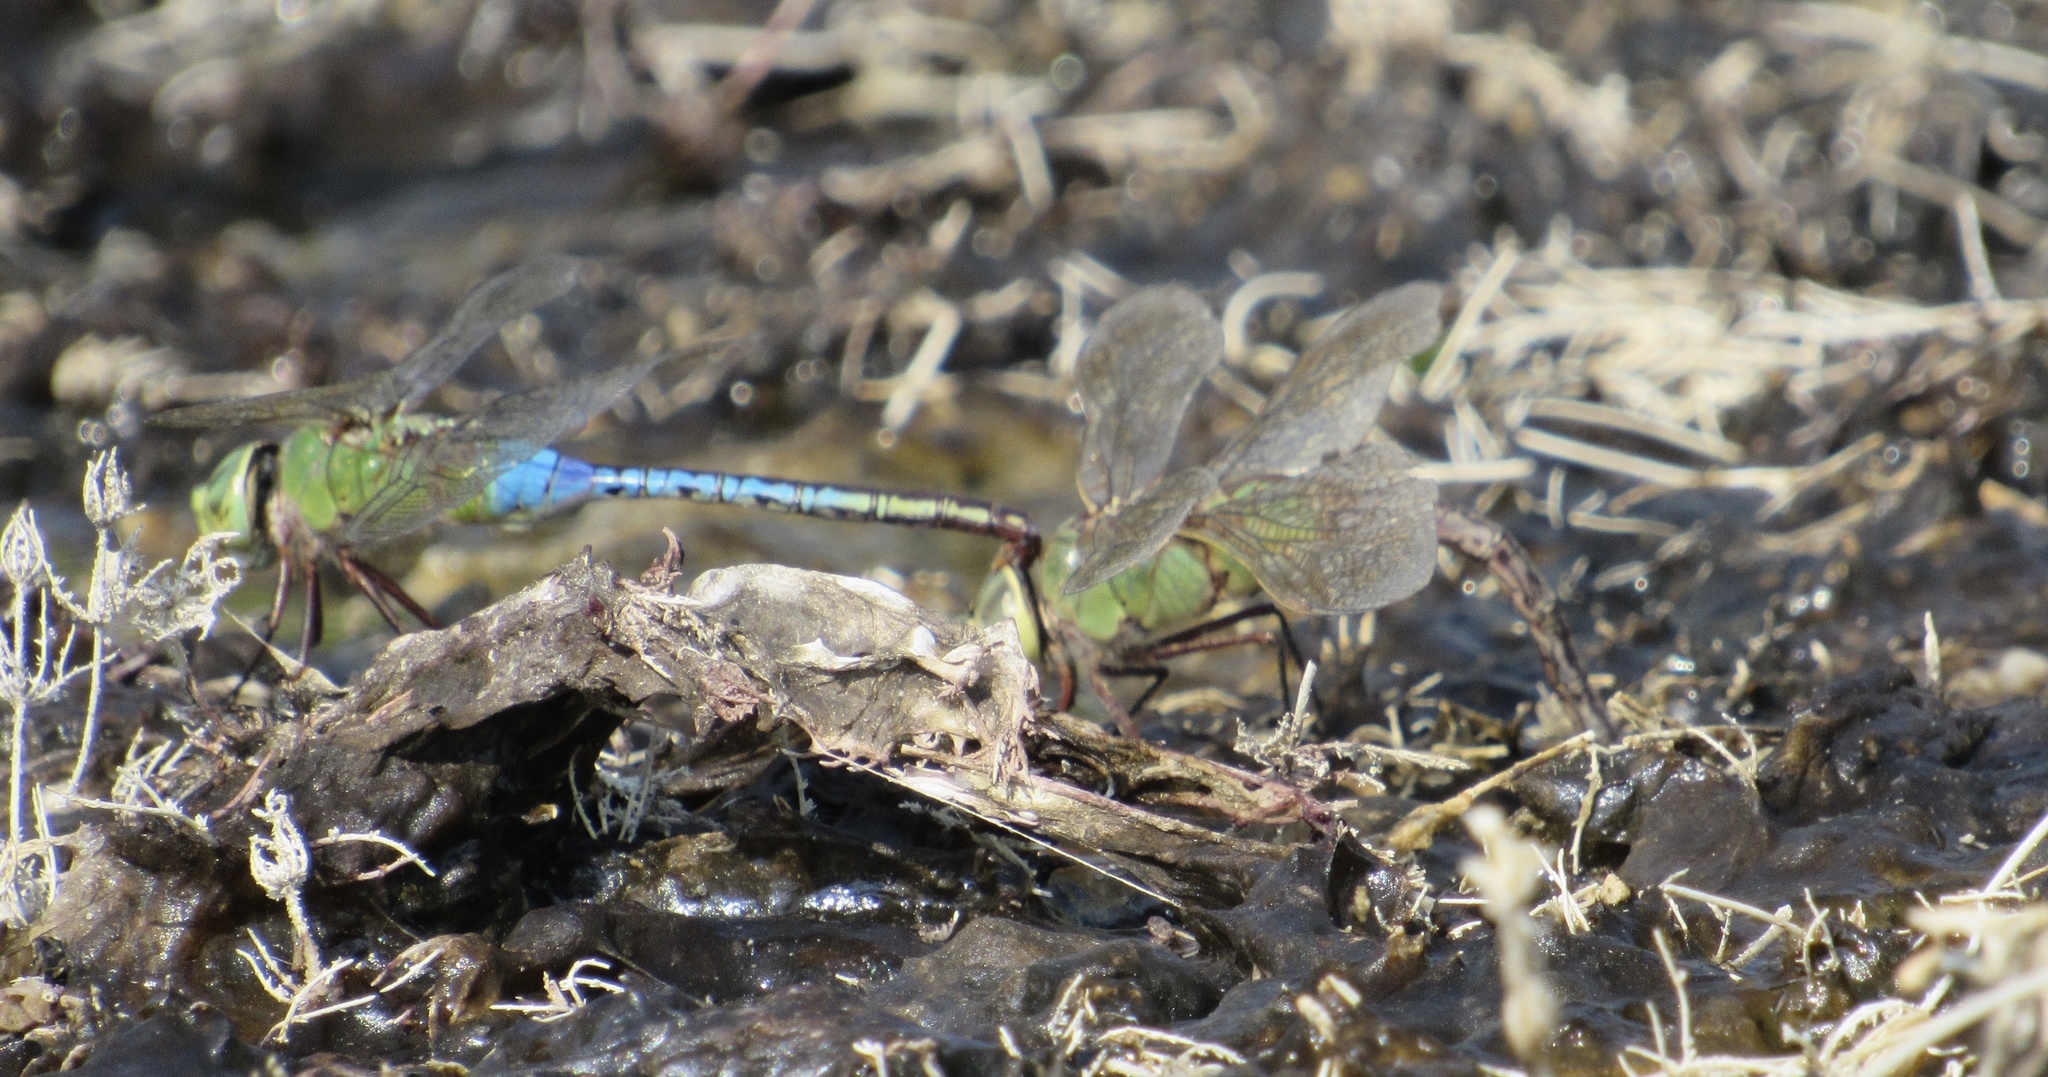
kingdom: Animalia
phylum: Arthropoda
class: Insecta
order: Odonata
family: Aeshnidae
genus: Anax
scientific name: Anax junius
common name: Common green darner
